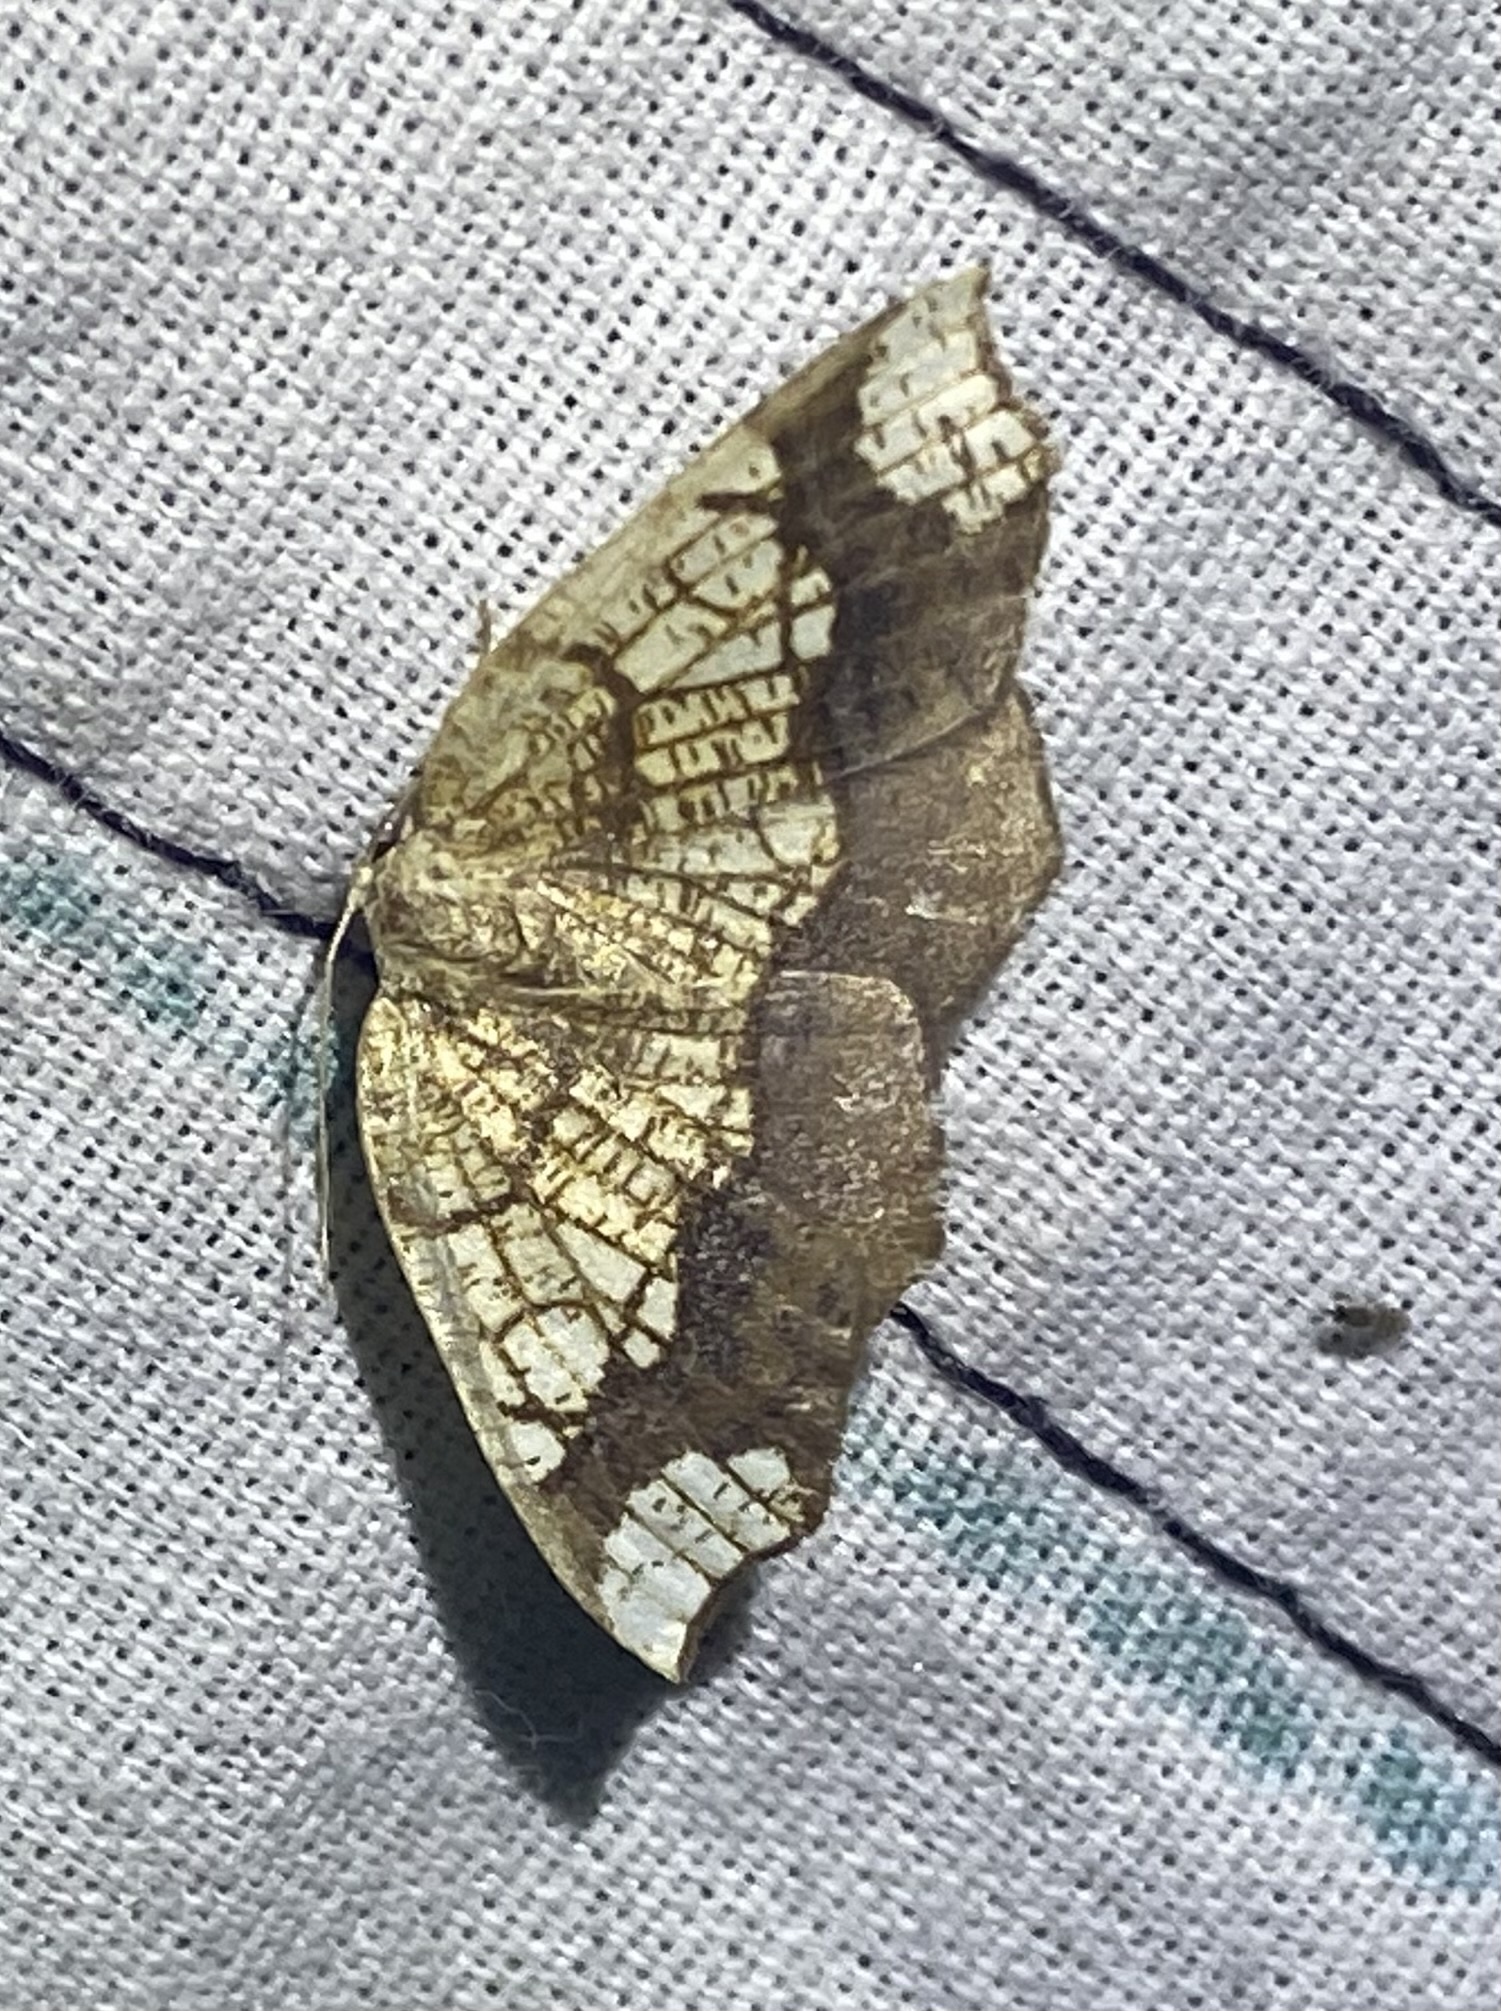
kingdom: Animalia
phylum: Arthropoda
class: Insecta
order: Lepidoptera
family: Geometridae
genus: Nematocampa
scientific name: Nematocampa resistaria
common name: Horned spanworm moth
